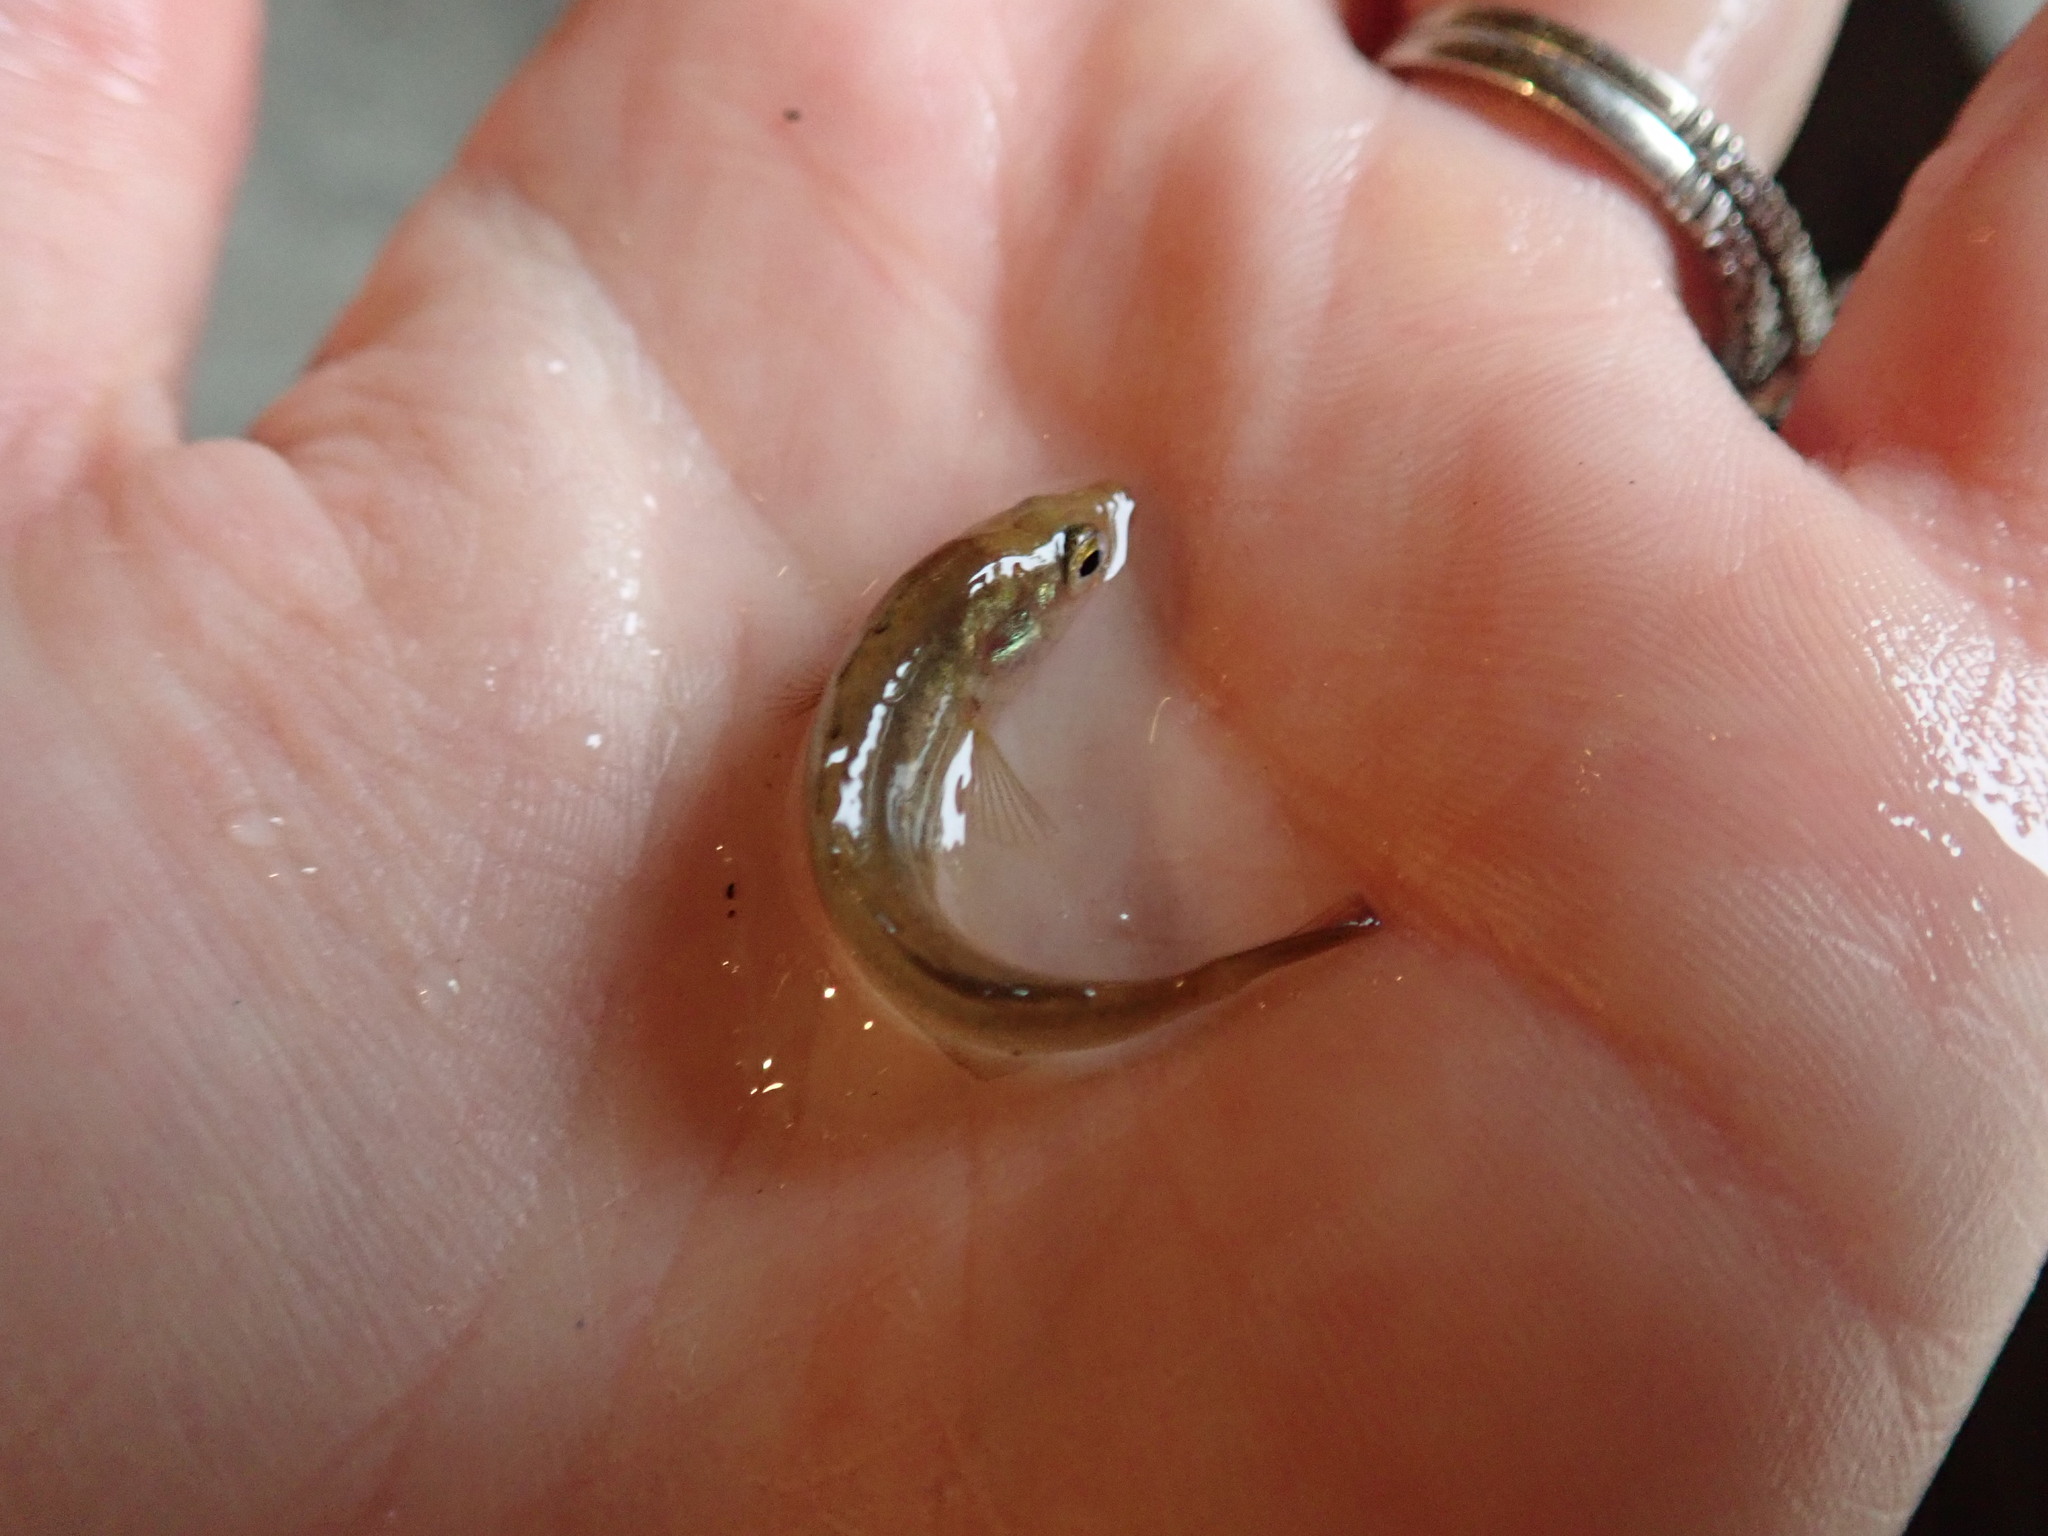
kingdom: Animalia
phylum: Chordata
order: Gasterosteiformes
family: Gasterosteidae
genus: Culaea
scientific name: Culaea inconstans
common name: Brook stickleback
